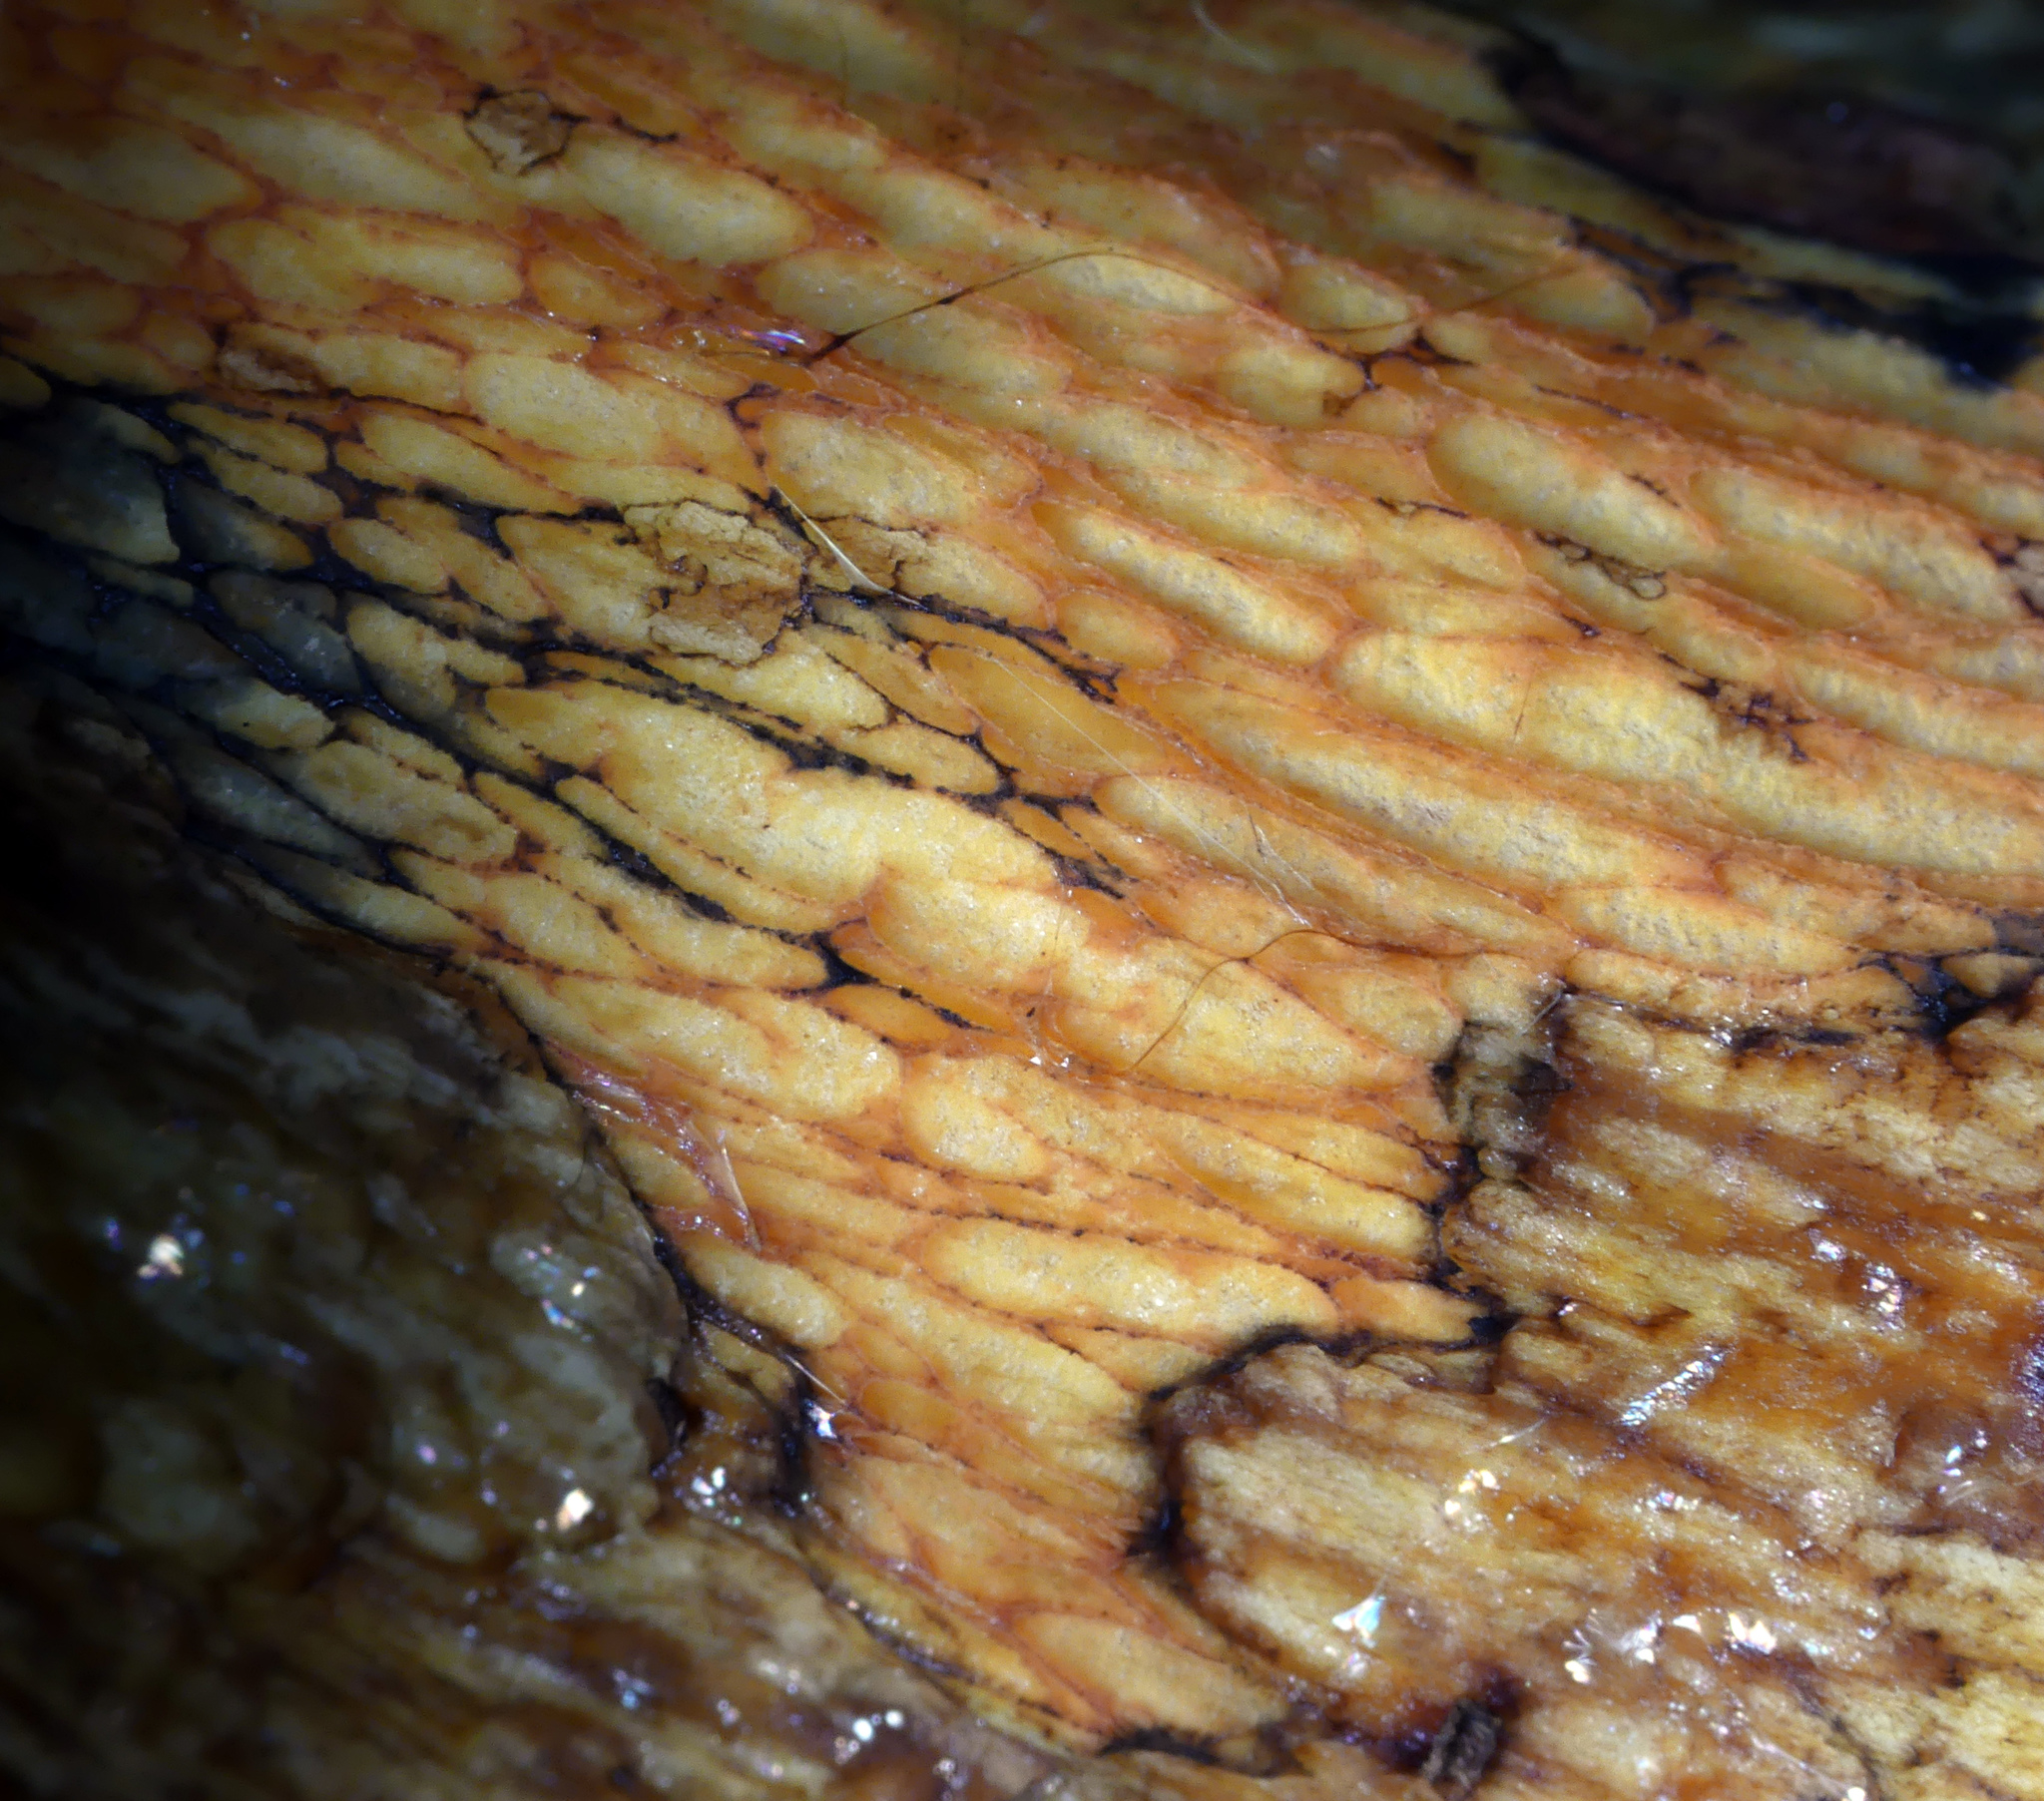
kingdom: Fungi
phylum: Basidiomycota
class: Agaricomycetes
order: Boletales
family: Boletaceae
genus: Suillellus
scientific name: Suillellus luridus
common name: Lurid bolete
